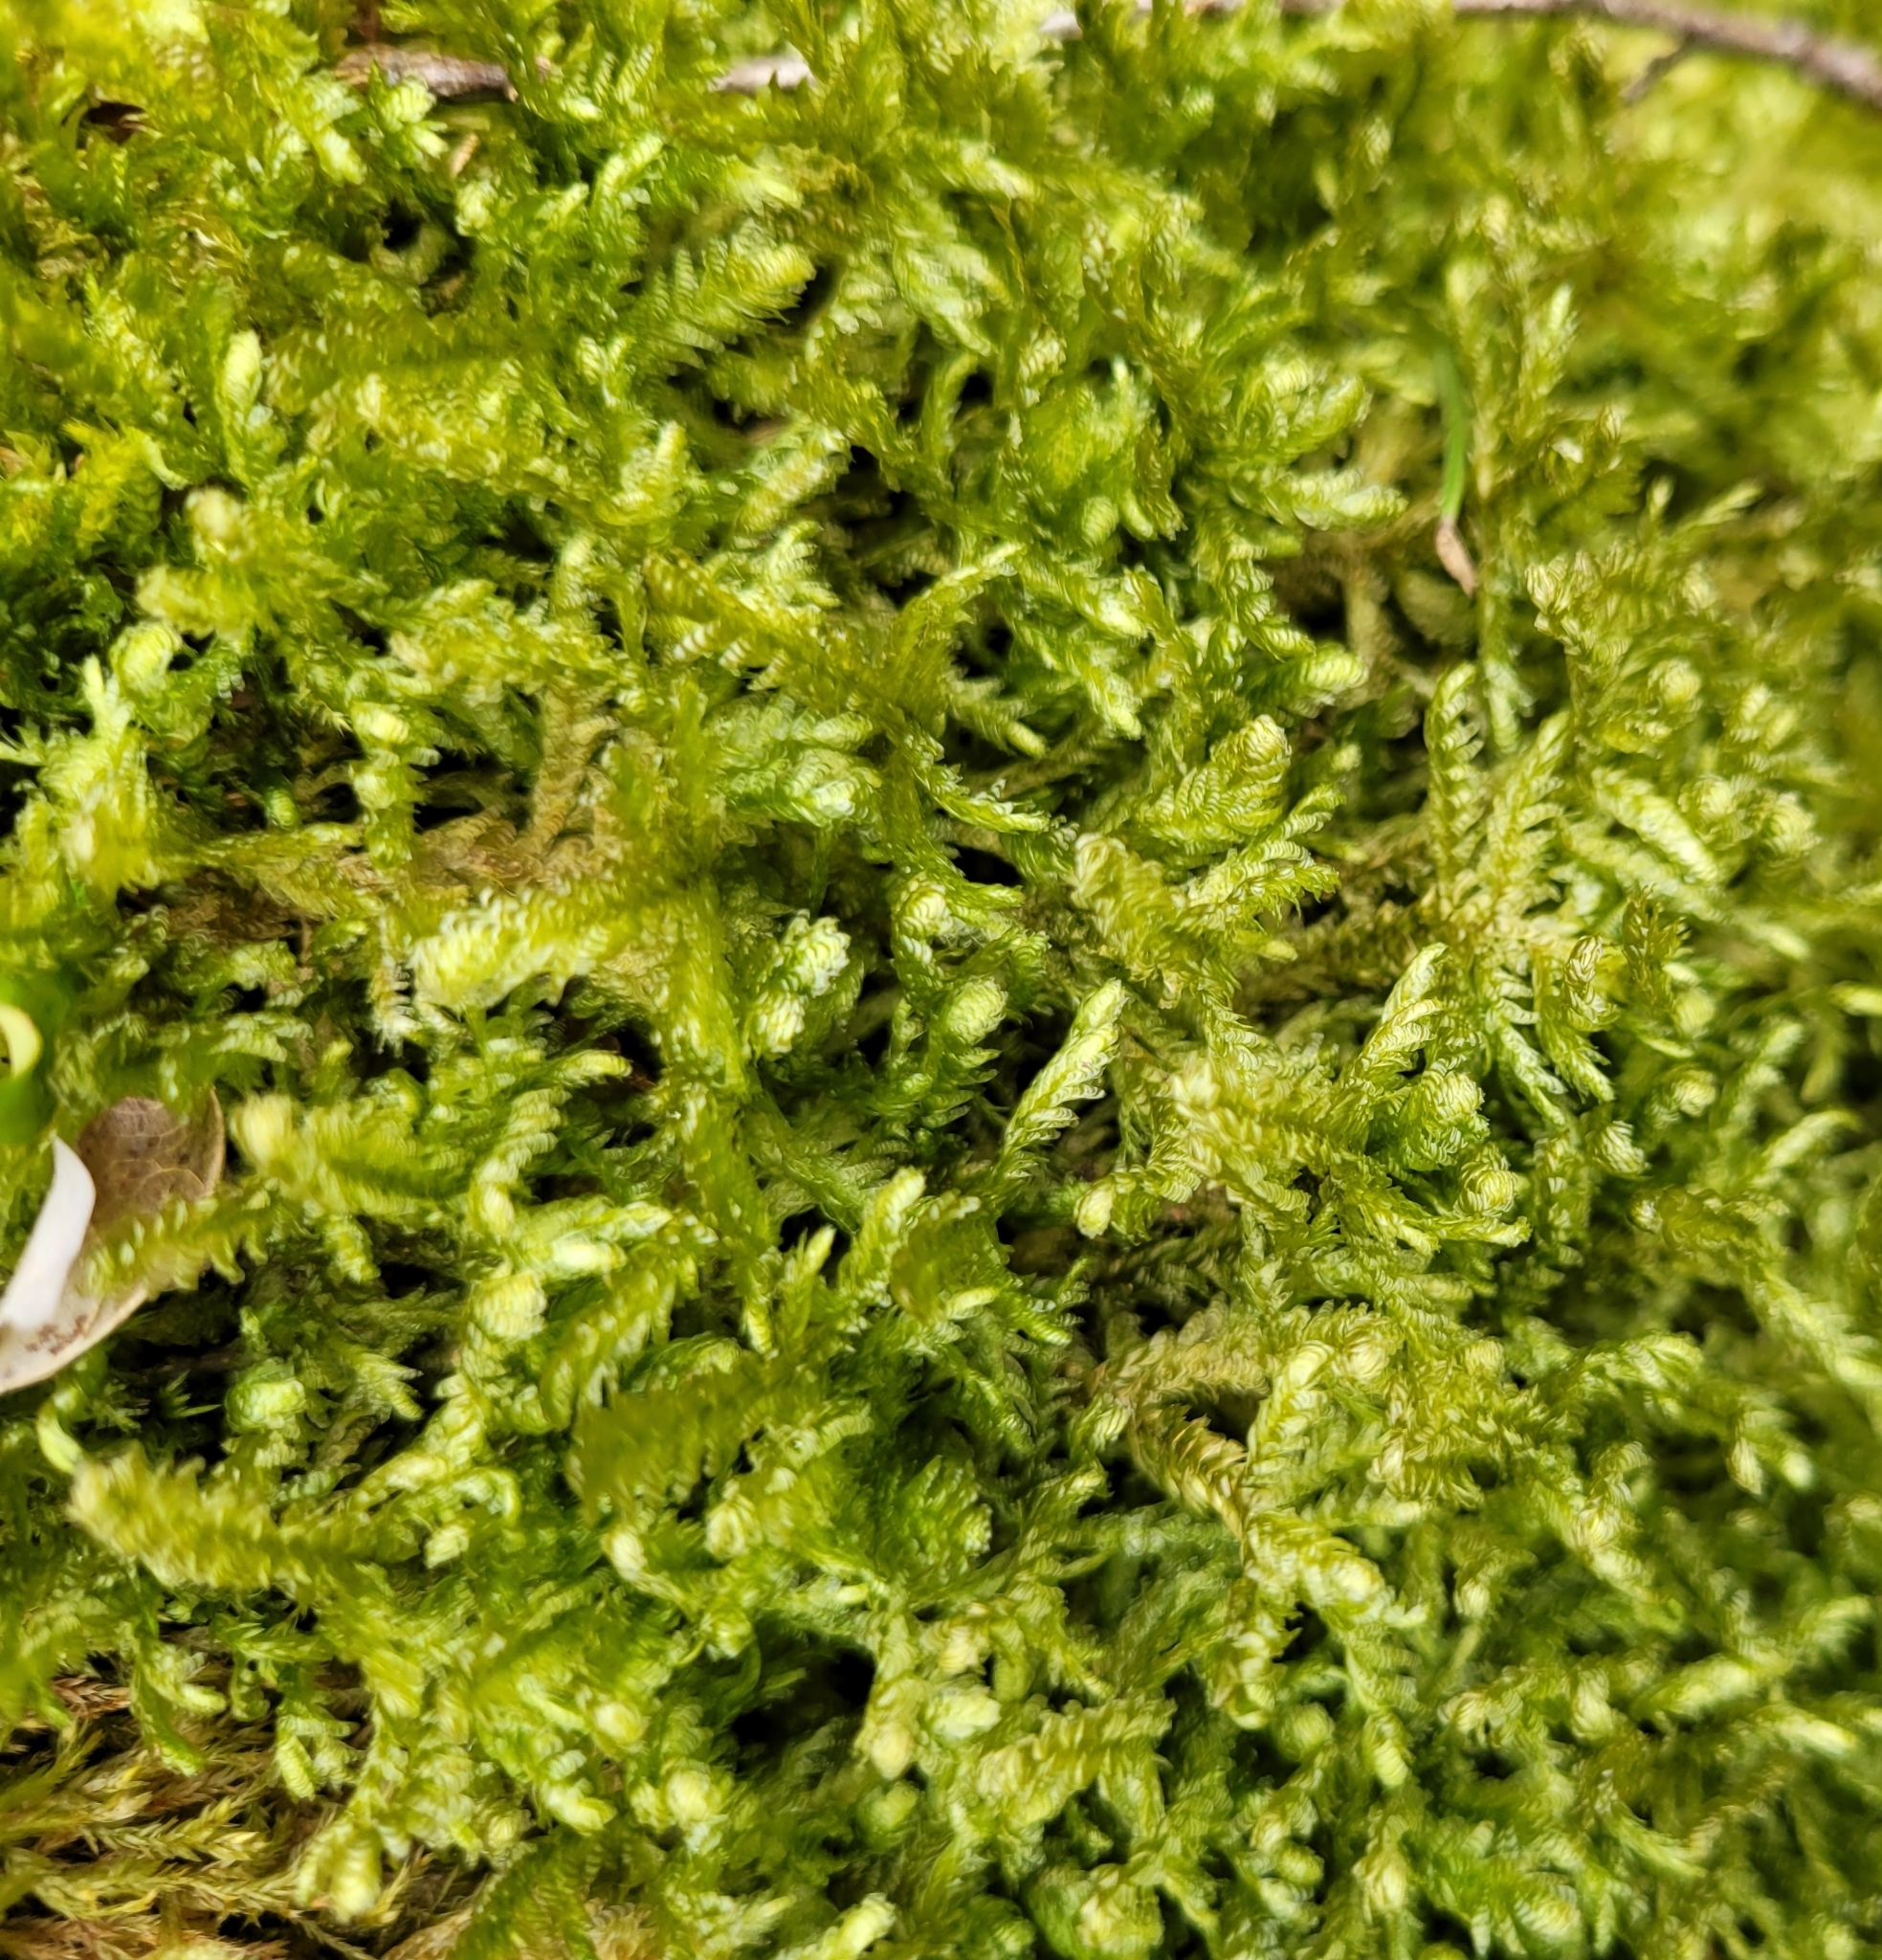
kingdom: Plantae
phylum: Bryophyta
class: Bryopsida
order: Hypnales
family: Neckeraceae
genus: Exsertotheca
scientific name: Exsertotheca crispa
